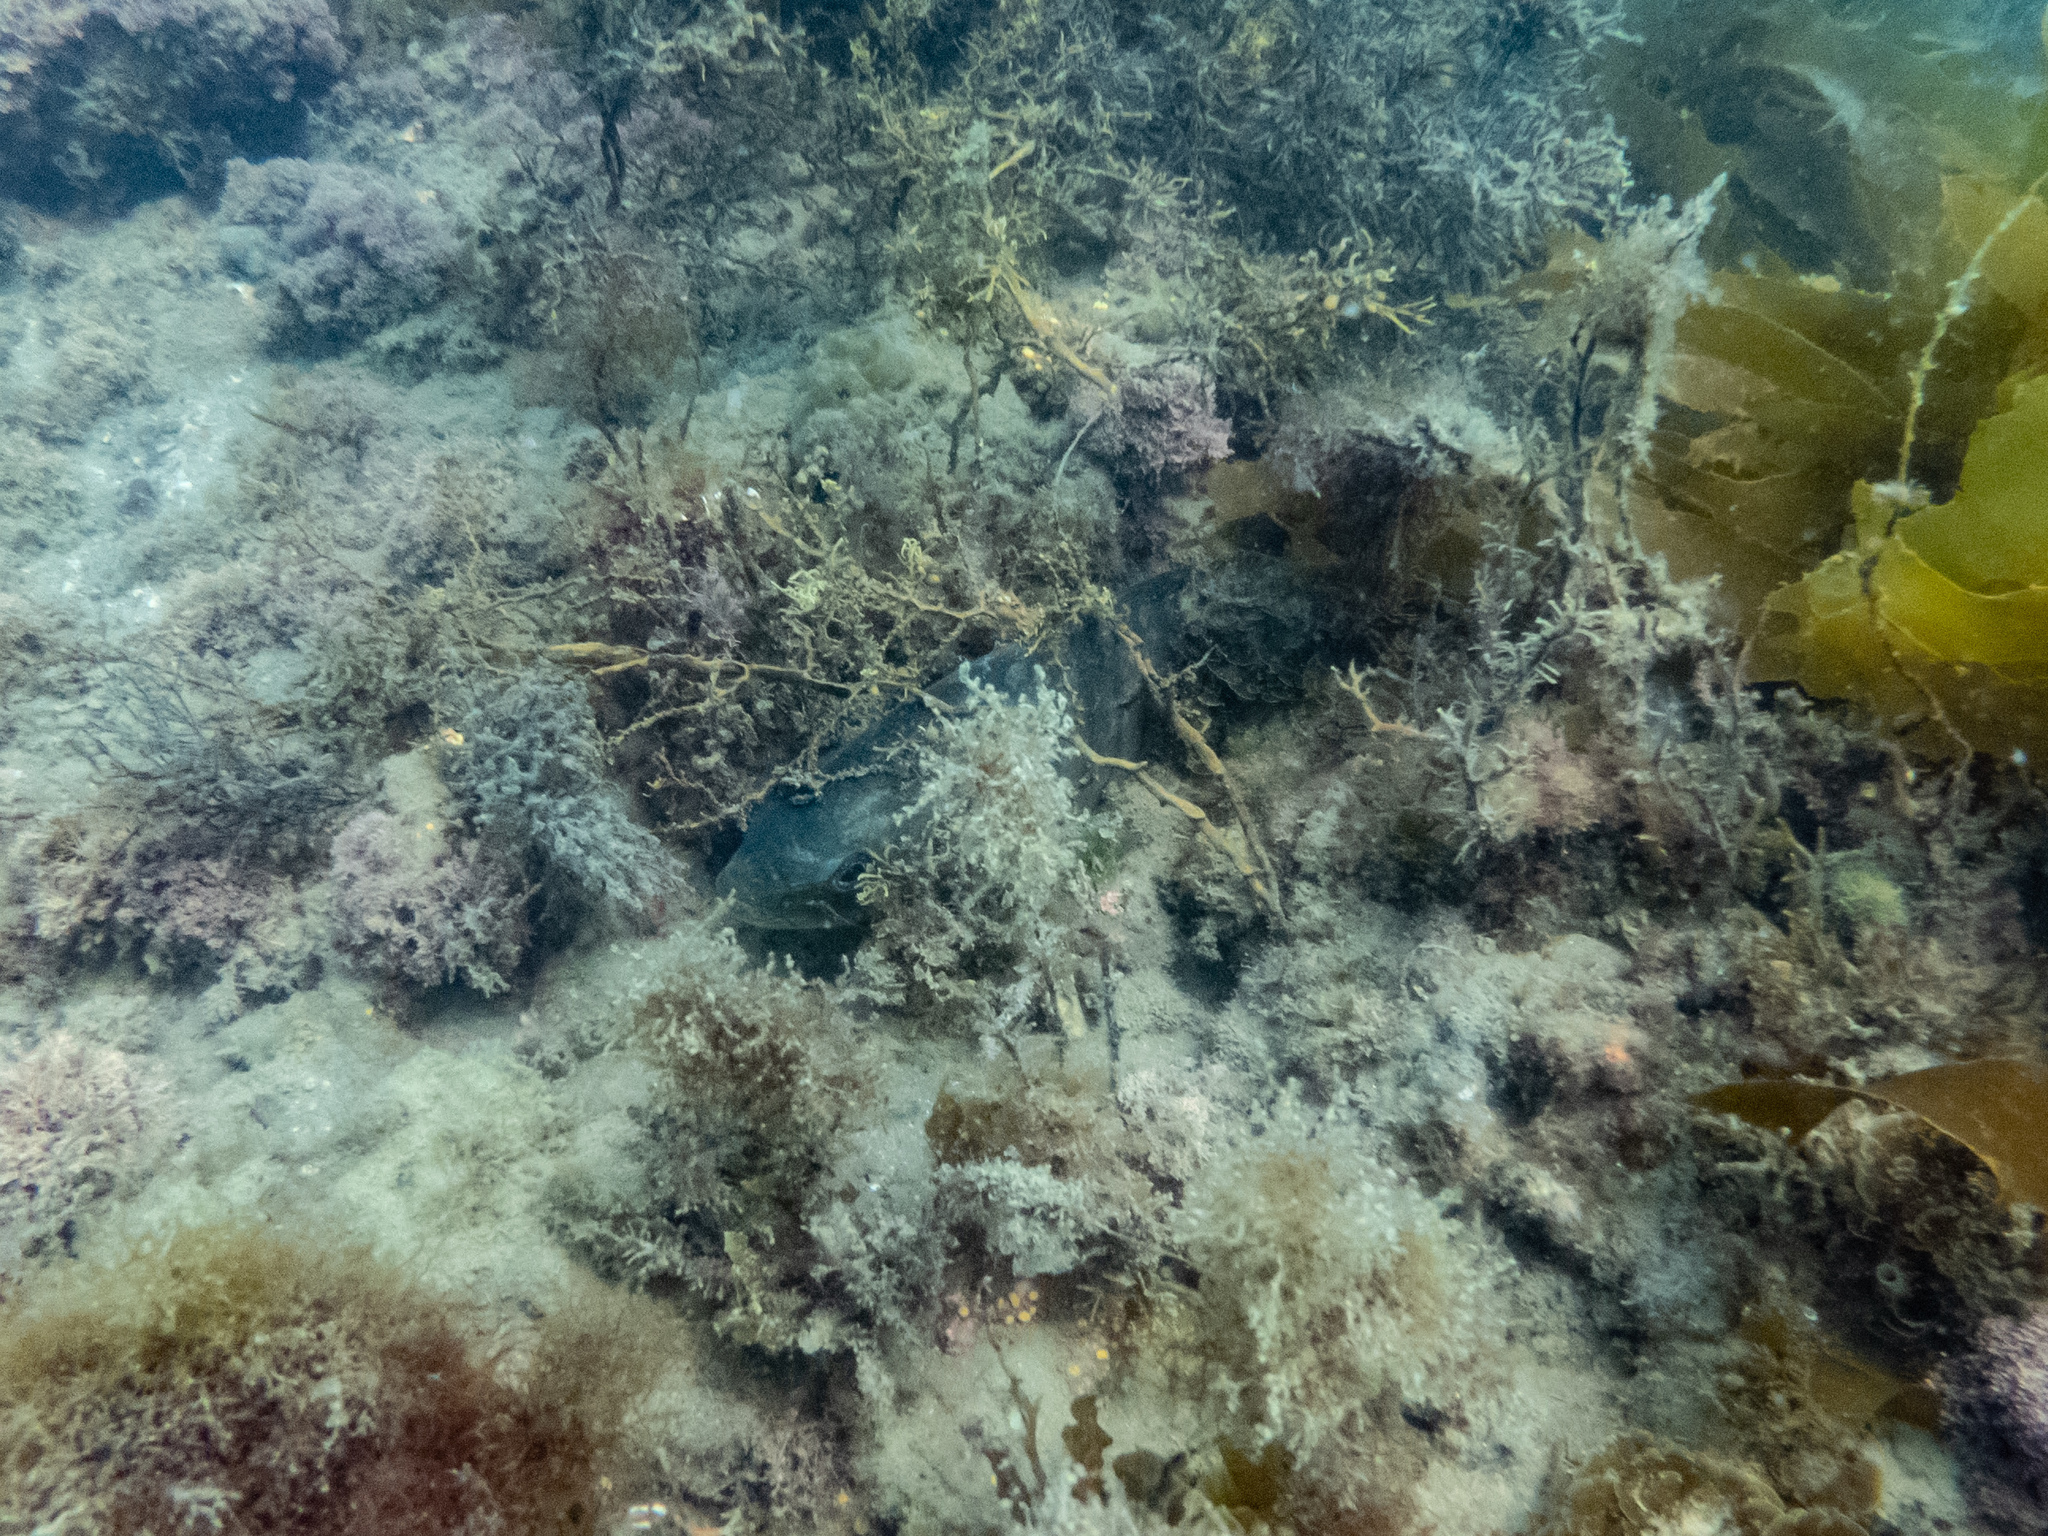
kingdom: Animalia
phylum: Chordata
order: Perciformes
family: Kyphosidae
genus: Girella
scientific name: Girella tricuspidata
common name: Parore
